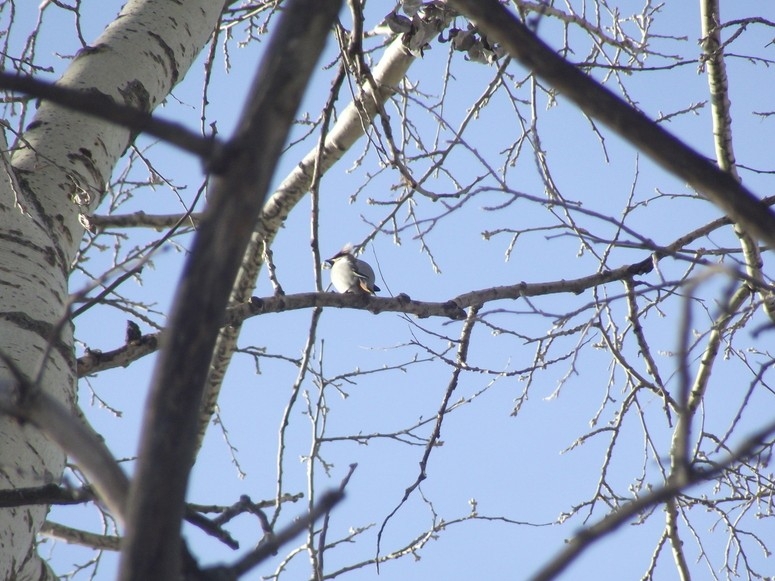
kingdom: Animalia
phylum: Chordata
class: Aves
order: Passeriformes
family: Bombycillidae
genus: Bombycilla
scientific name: Bombycilla garrulus
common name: Bohemian waxwing
